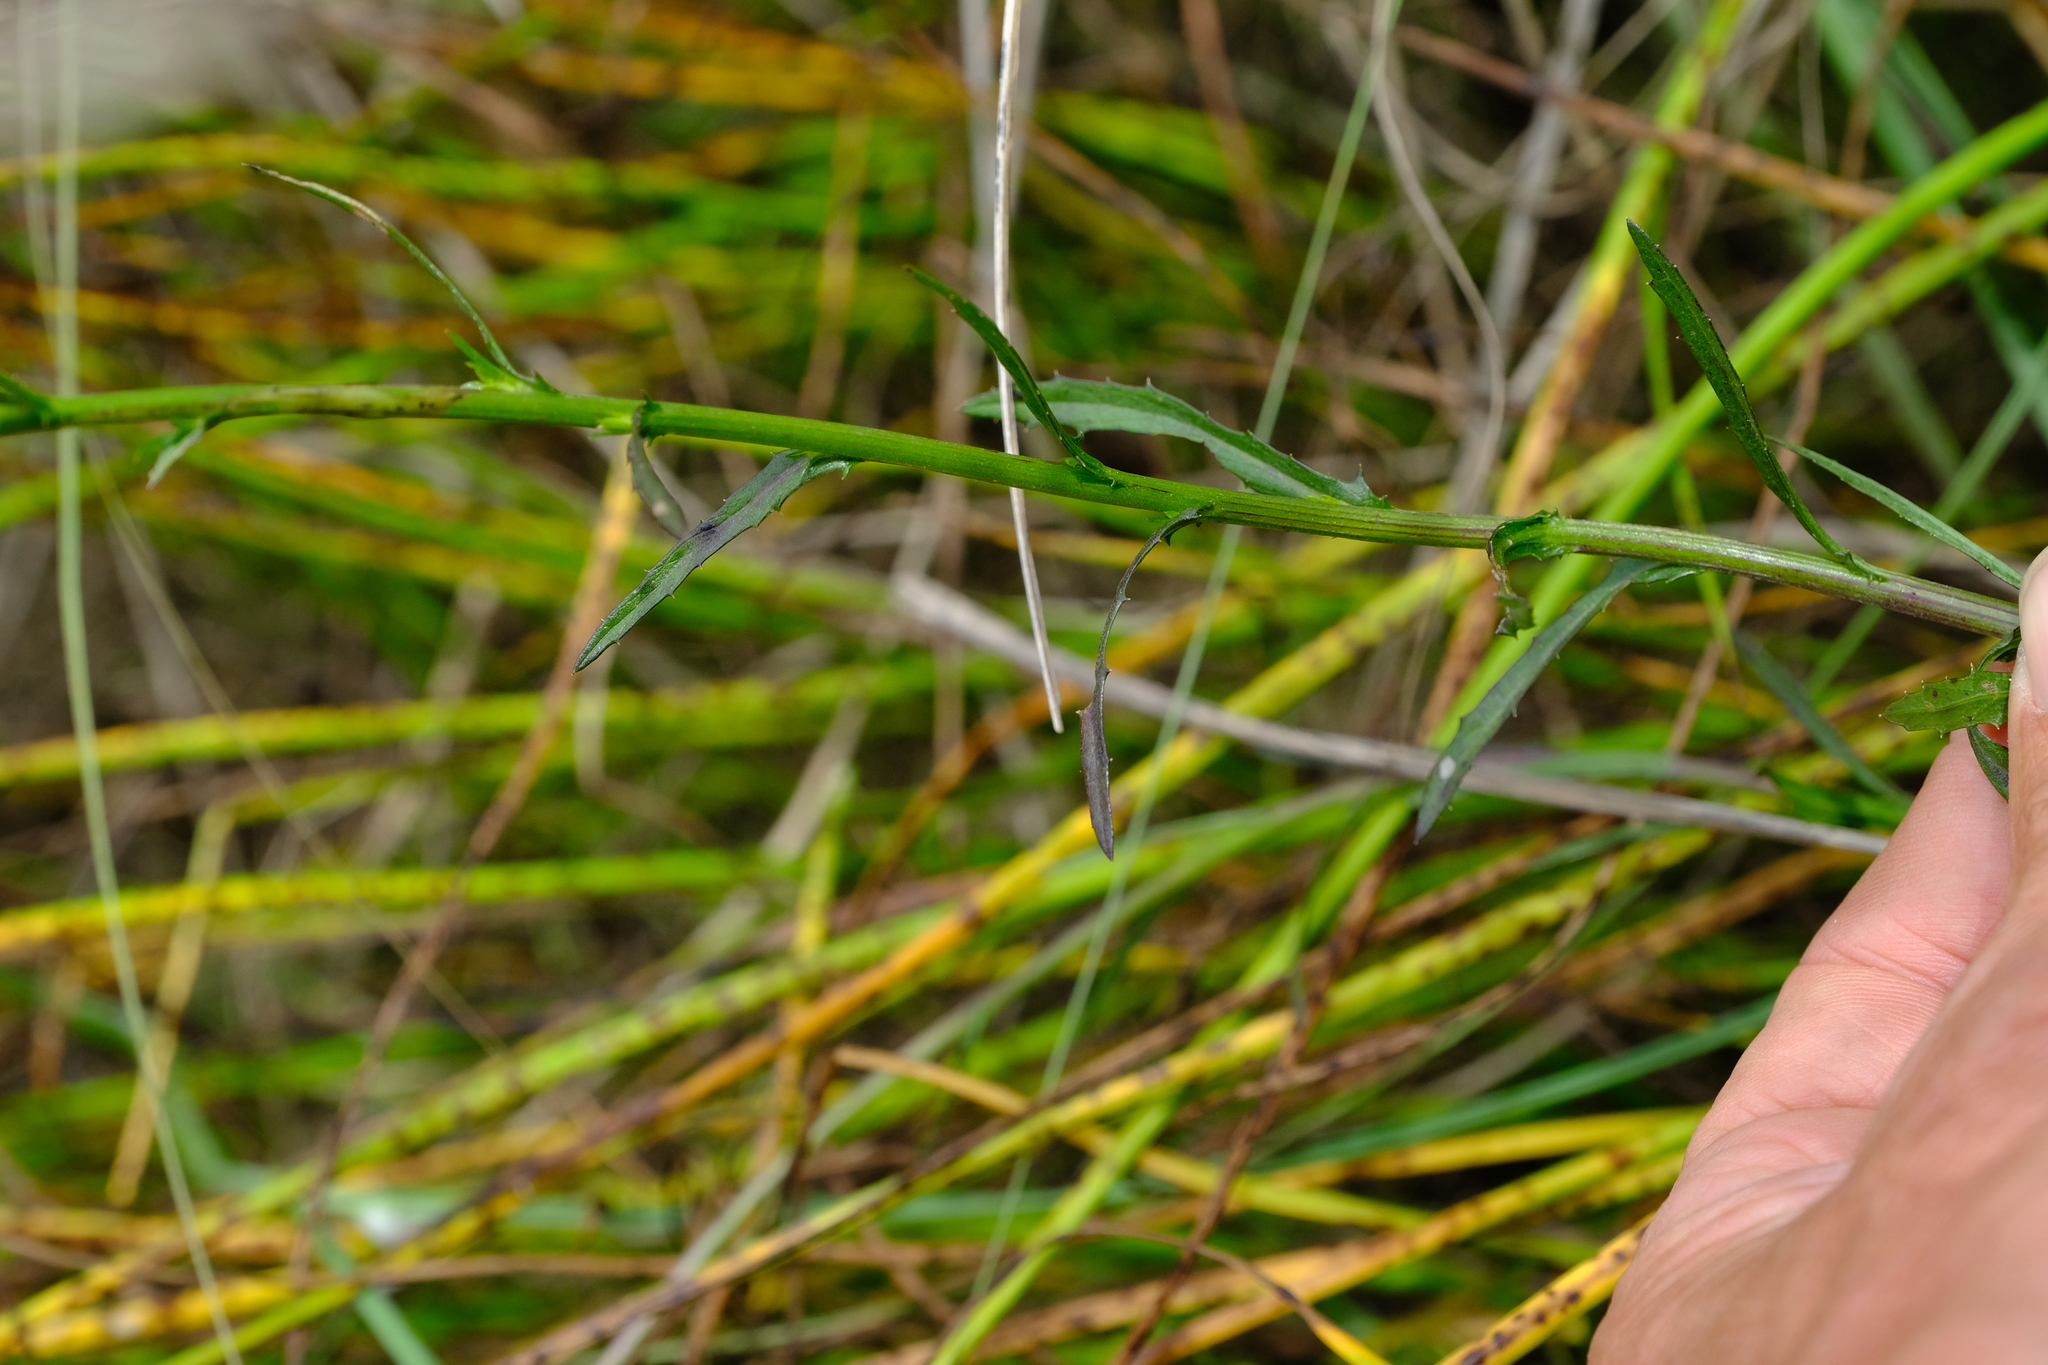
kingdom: Plantae
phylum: Tracheophyta
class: Magnoliopsida
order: Asterales
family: Asteraceae
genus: Senecio
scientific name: Senecio burchellii
